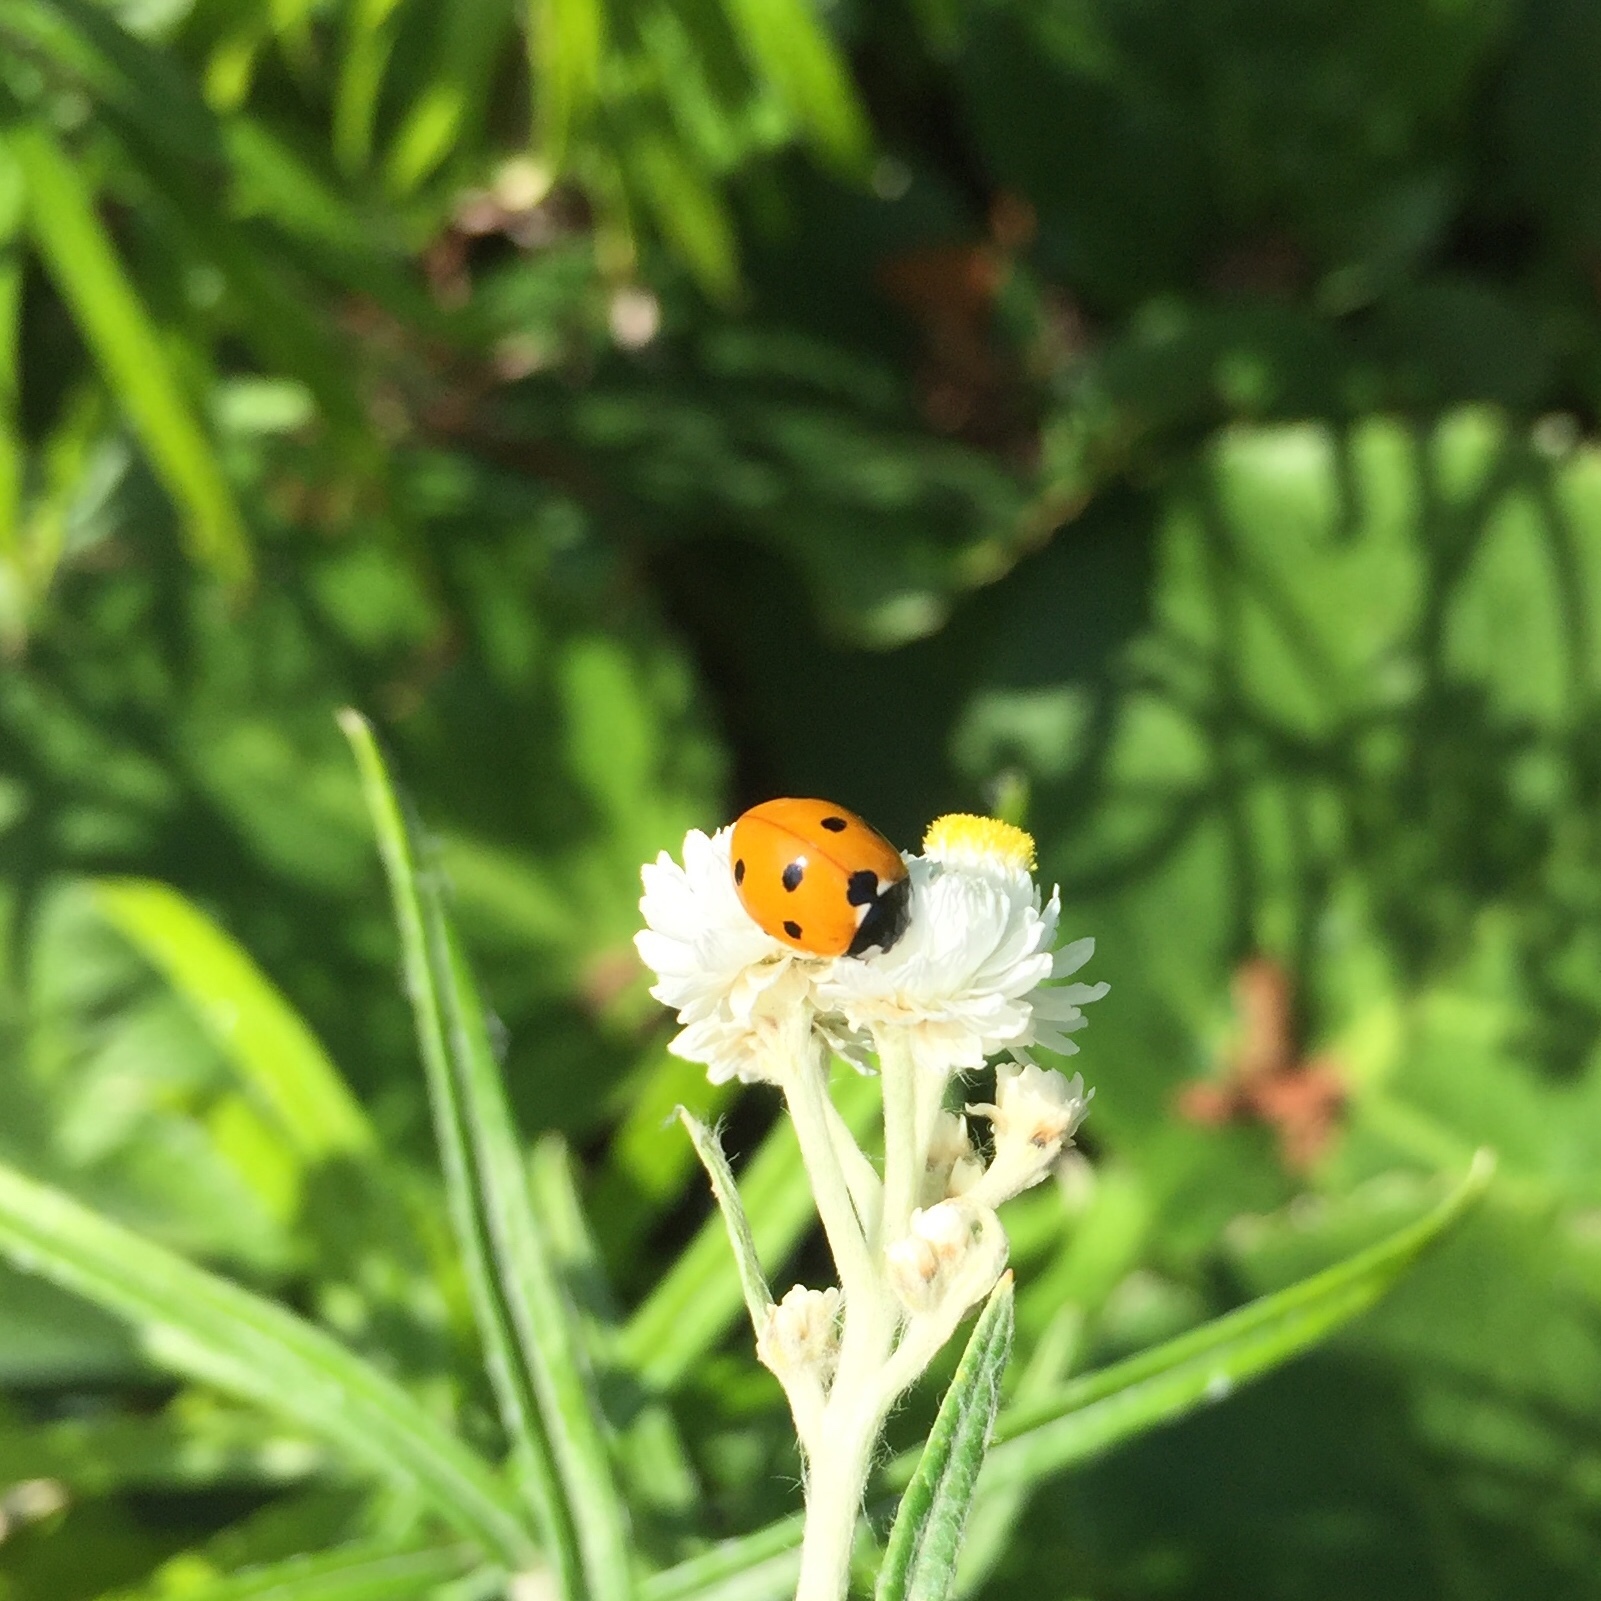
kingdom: Animalia
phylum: Arthropoda
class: Insecta
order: Coleoptera
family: Coccinellidae
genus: Coccinella
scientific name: Coccinella septempunctata
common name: Sevenspotted lady beetle
